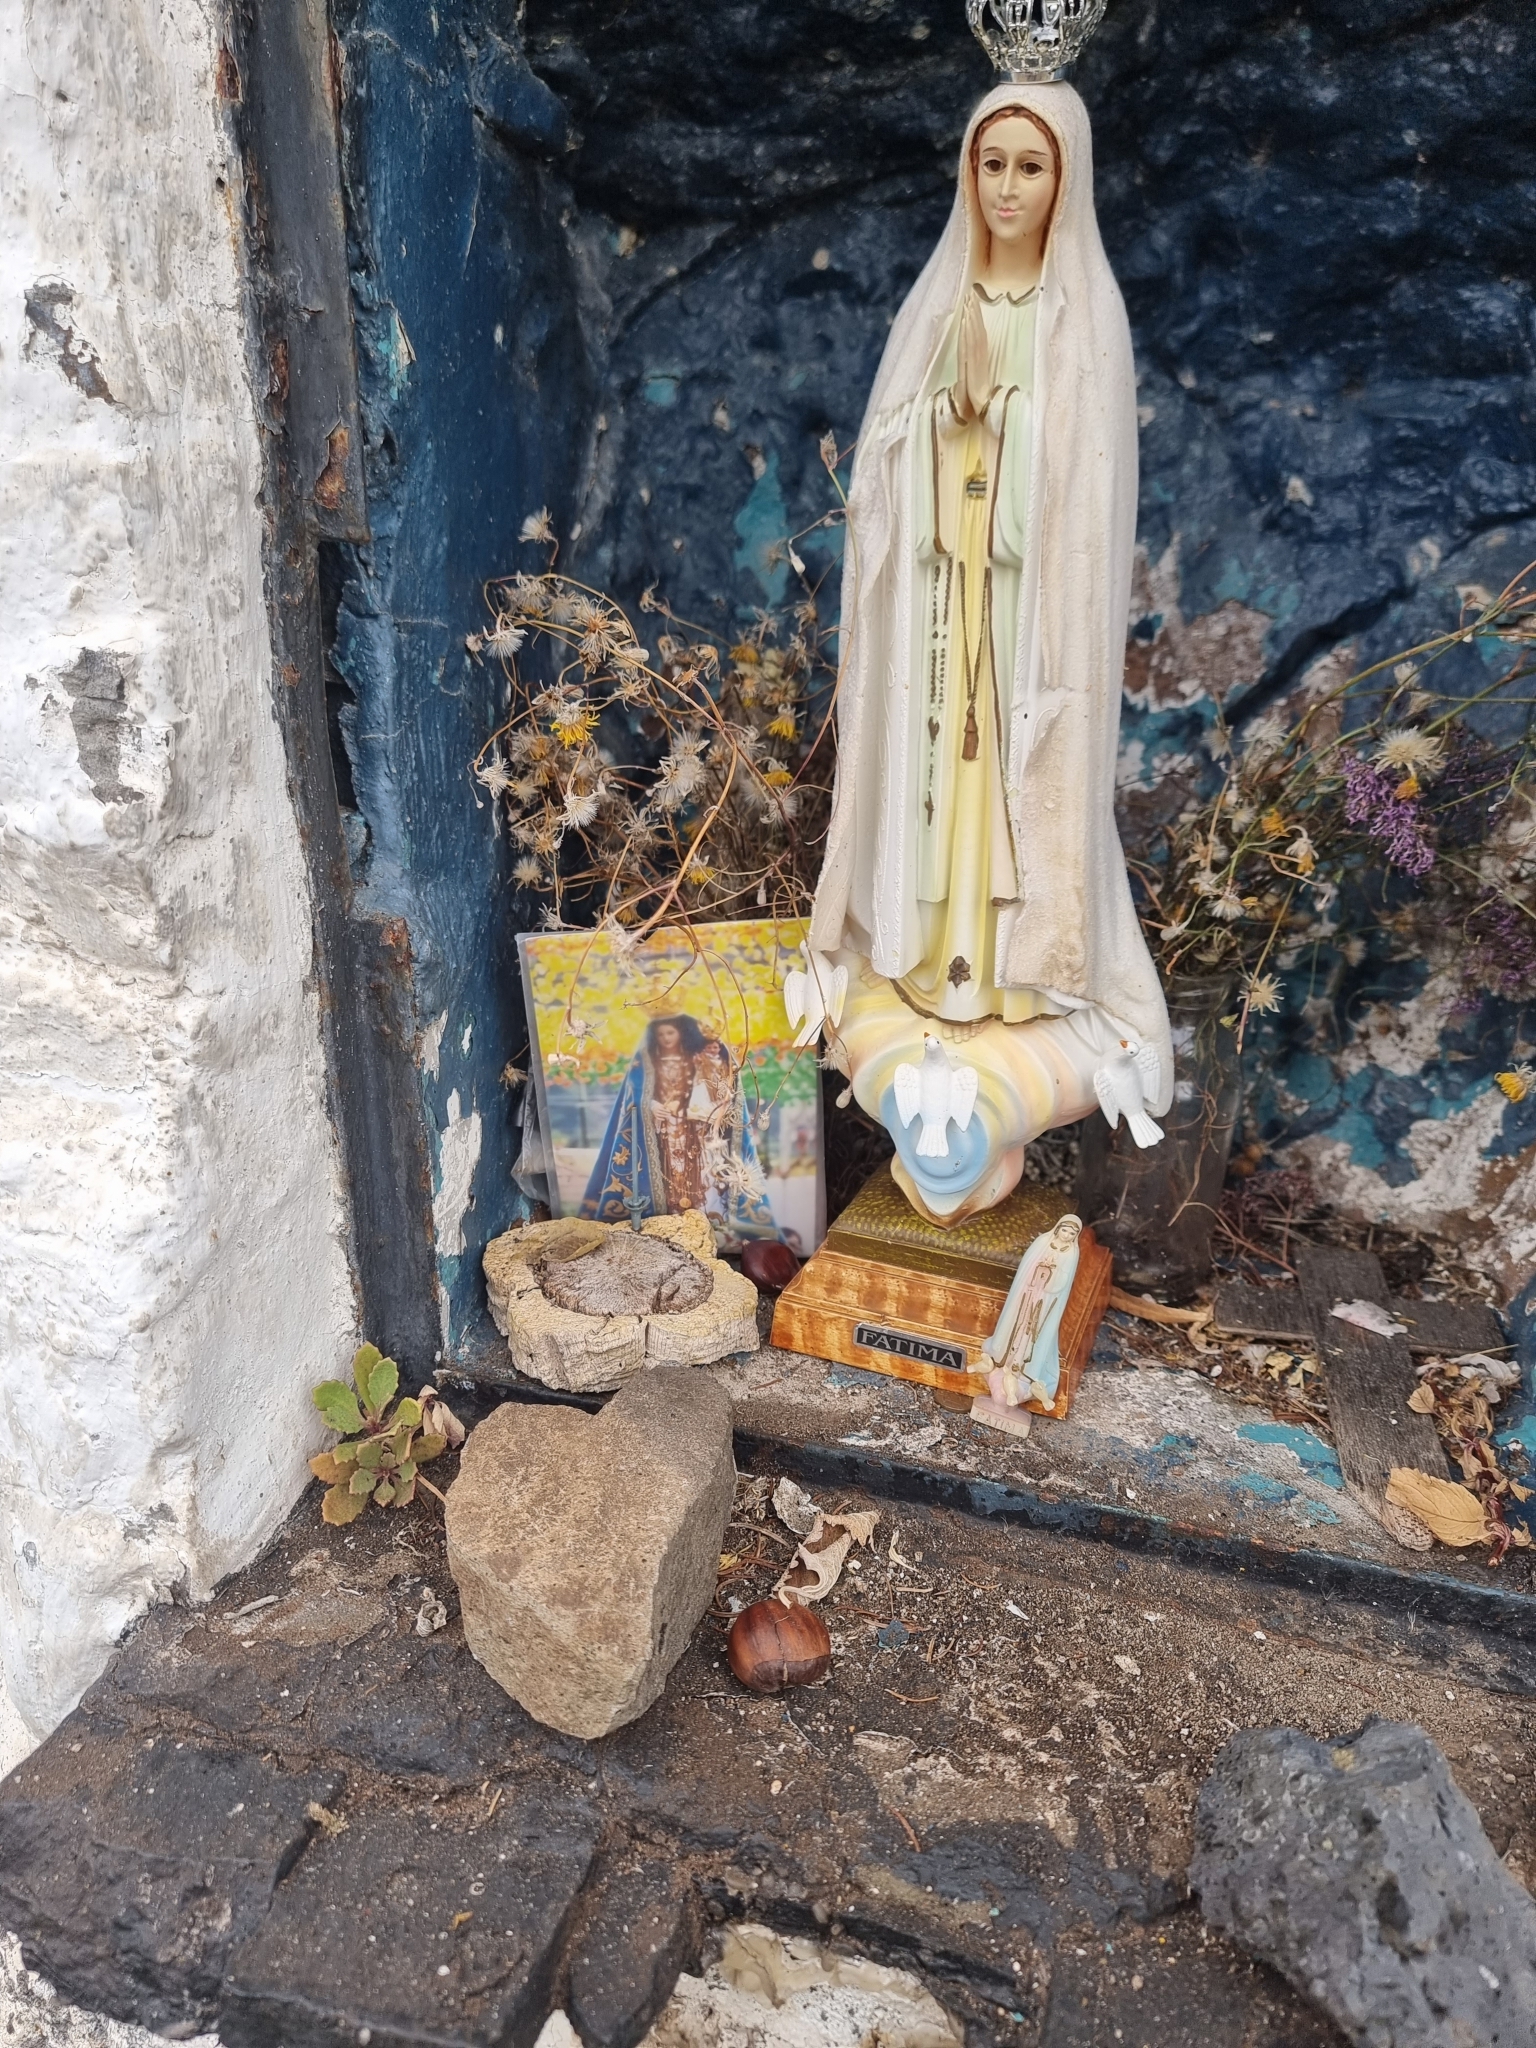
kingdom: Plantae
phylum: Tracheophyta
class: Magnoliopsida
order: Brassicales
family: Brassicaceae
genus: Sinapidendron
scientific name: Sinapidendron frutescens
